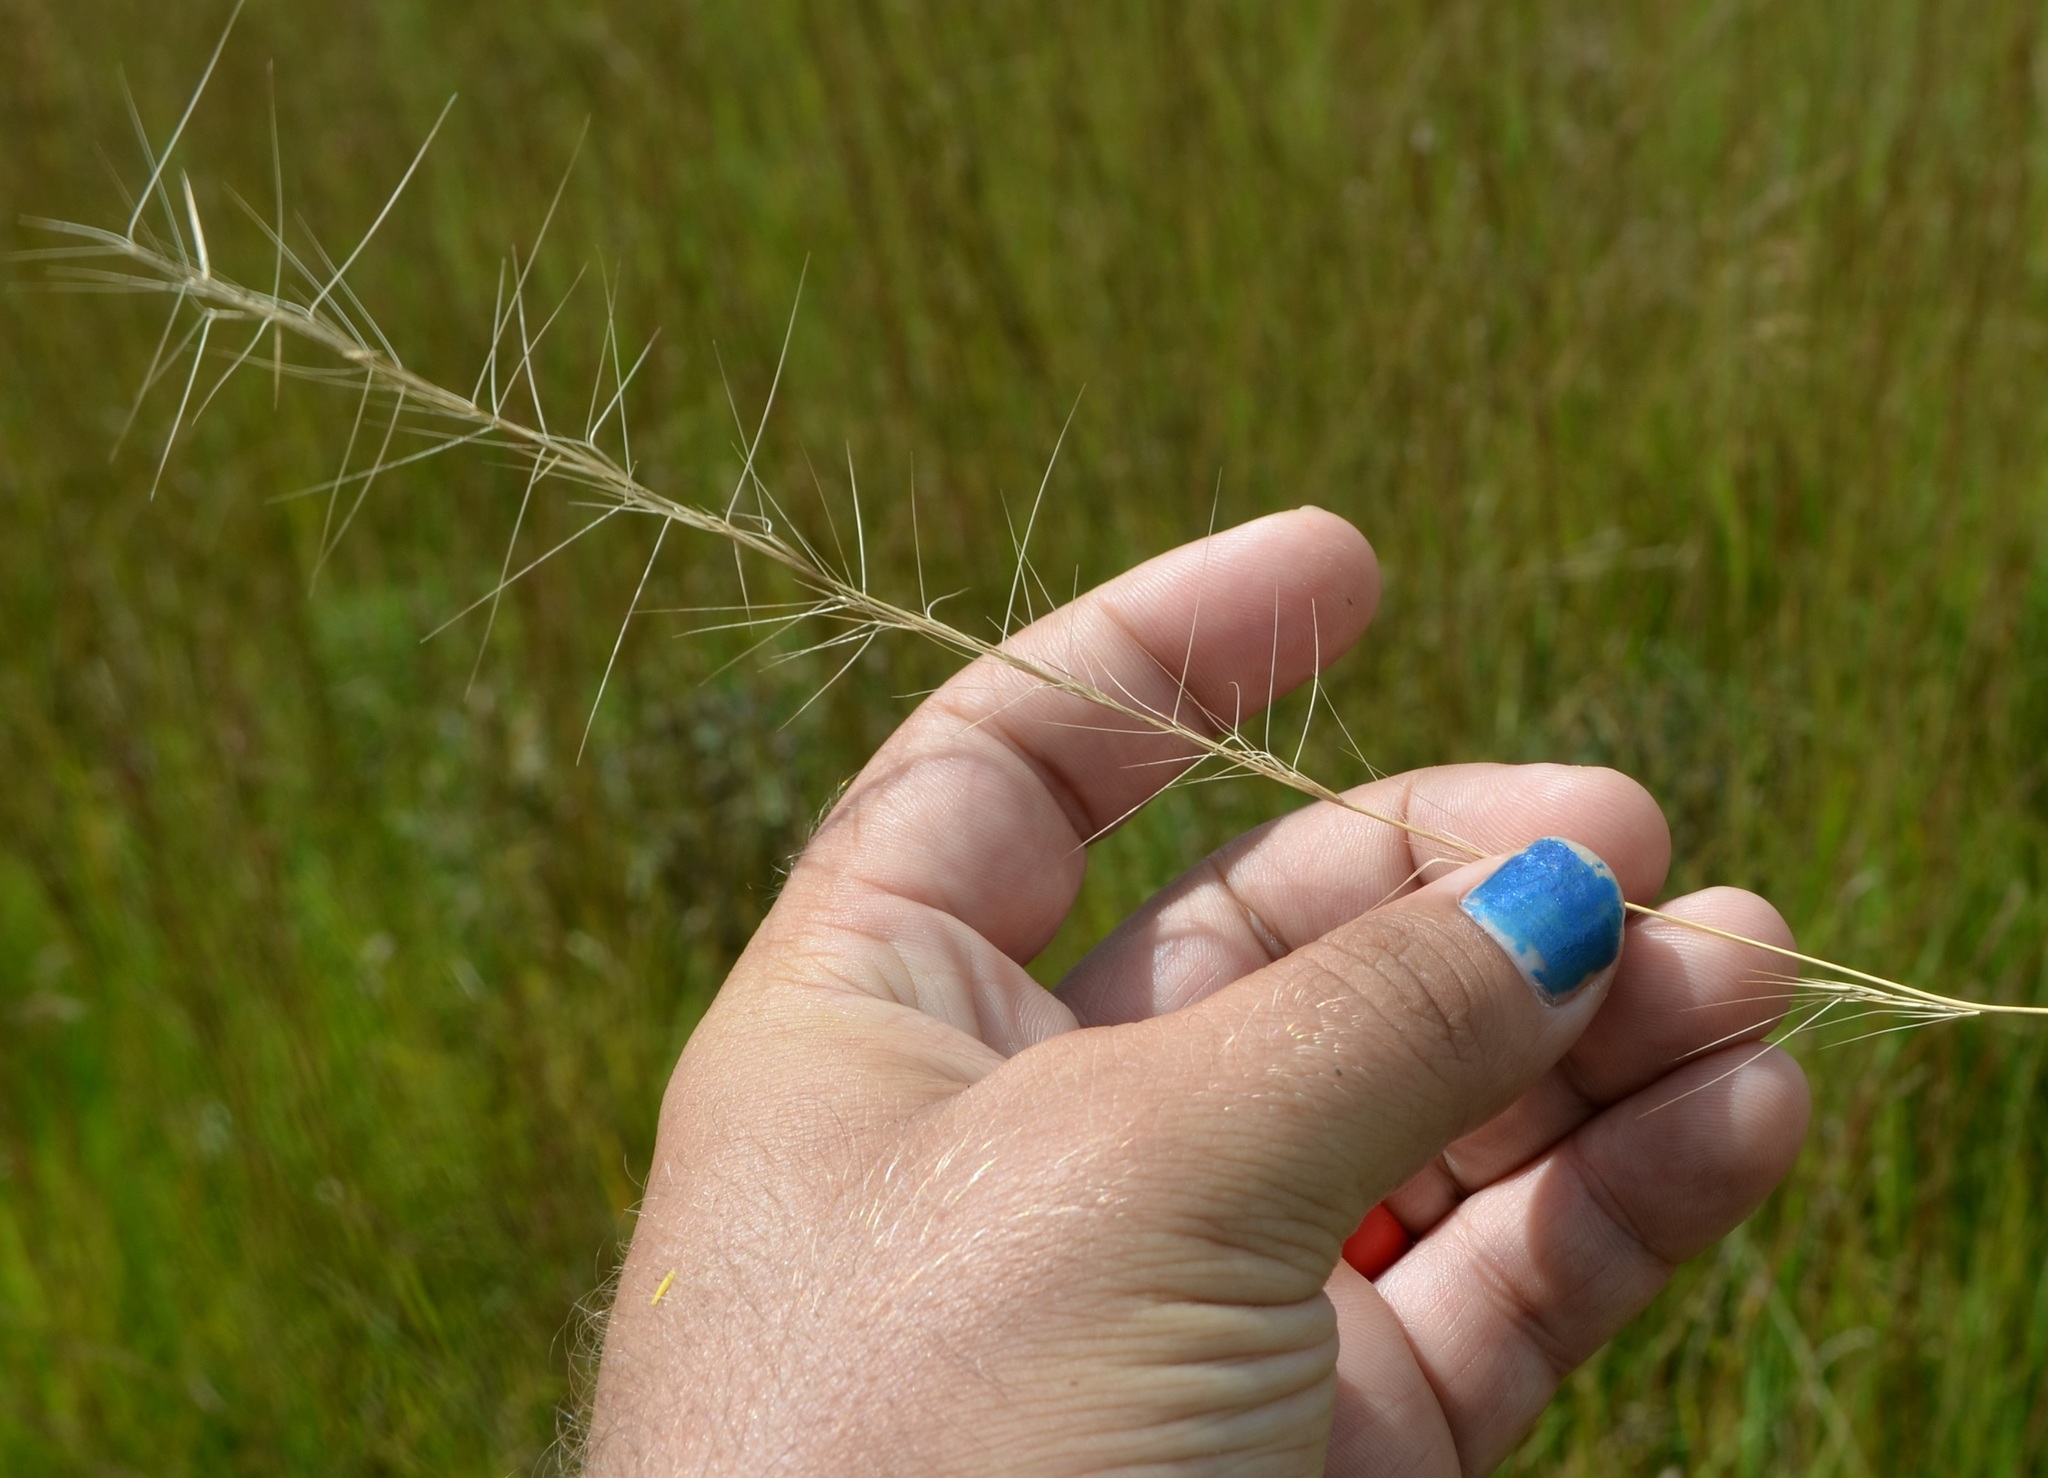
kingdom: Plantae
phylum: Tracheophyta
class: Liliopsida
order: Poales
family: Poaceae
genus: Aristida
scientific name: Aristida purpurascens
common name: Arrow-feather
